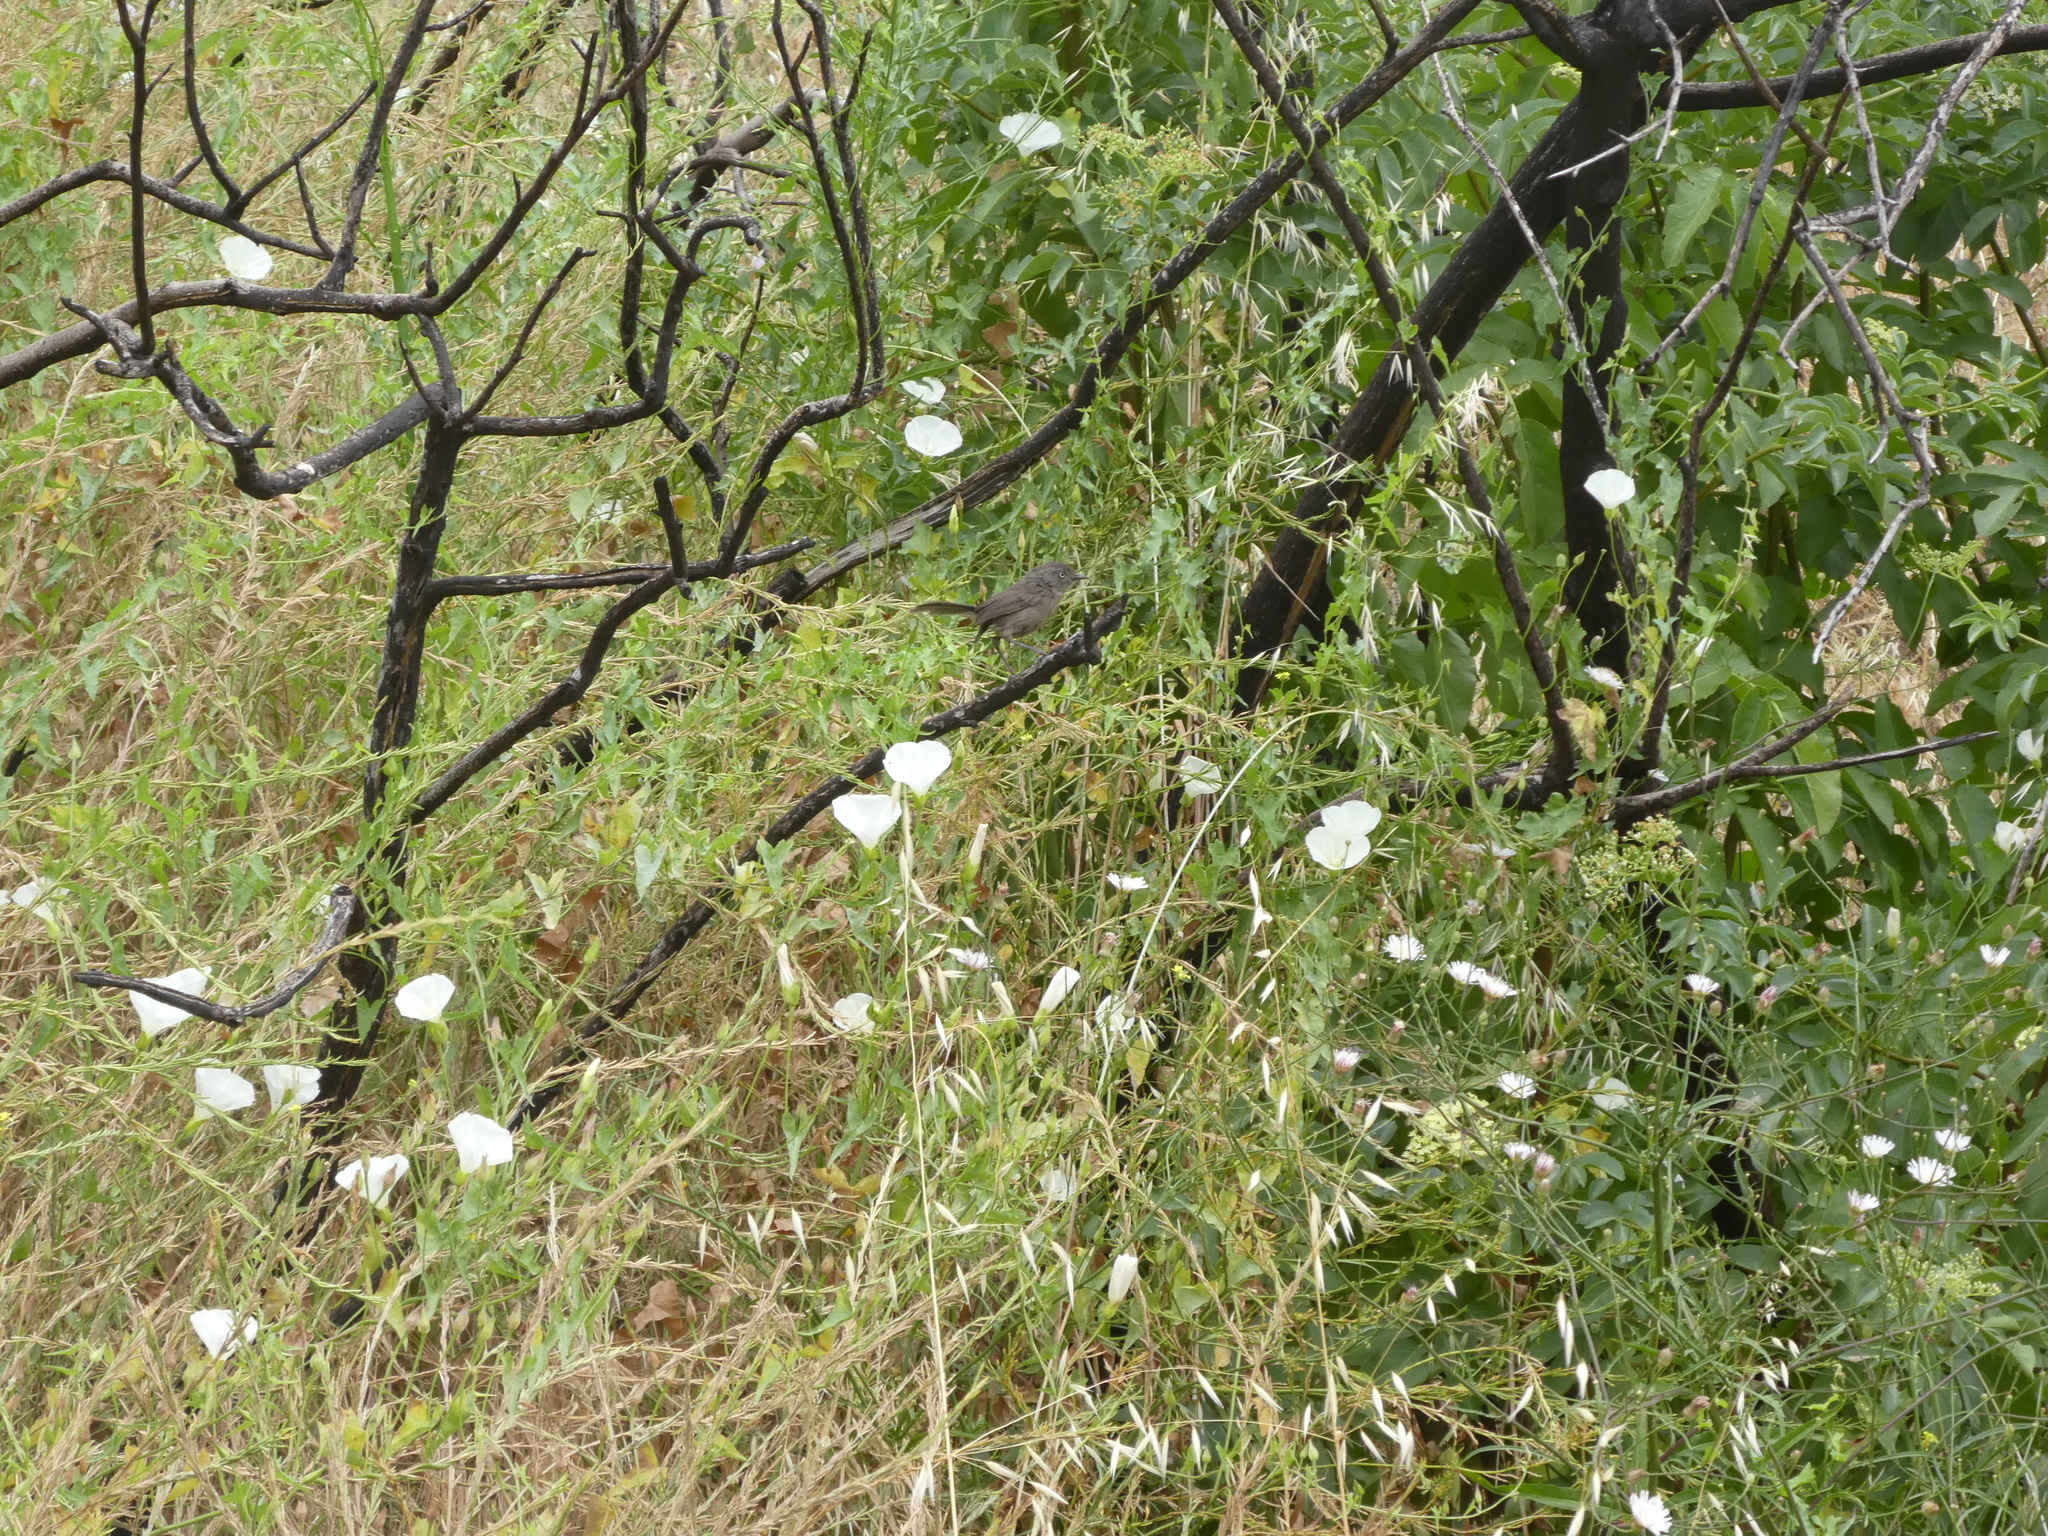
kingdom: Animalia
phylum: Chordata
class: Aves
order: Passeriformes
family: Sylviidae
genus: Chamaea
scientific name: Chamaea fasciata
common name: Wrentit
